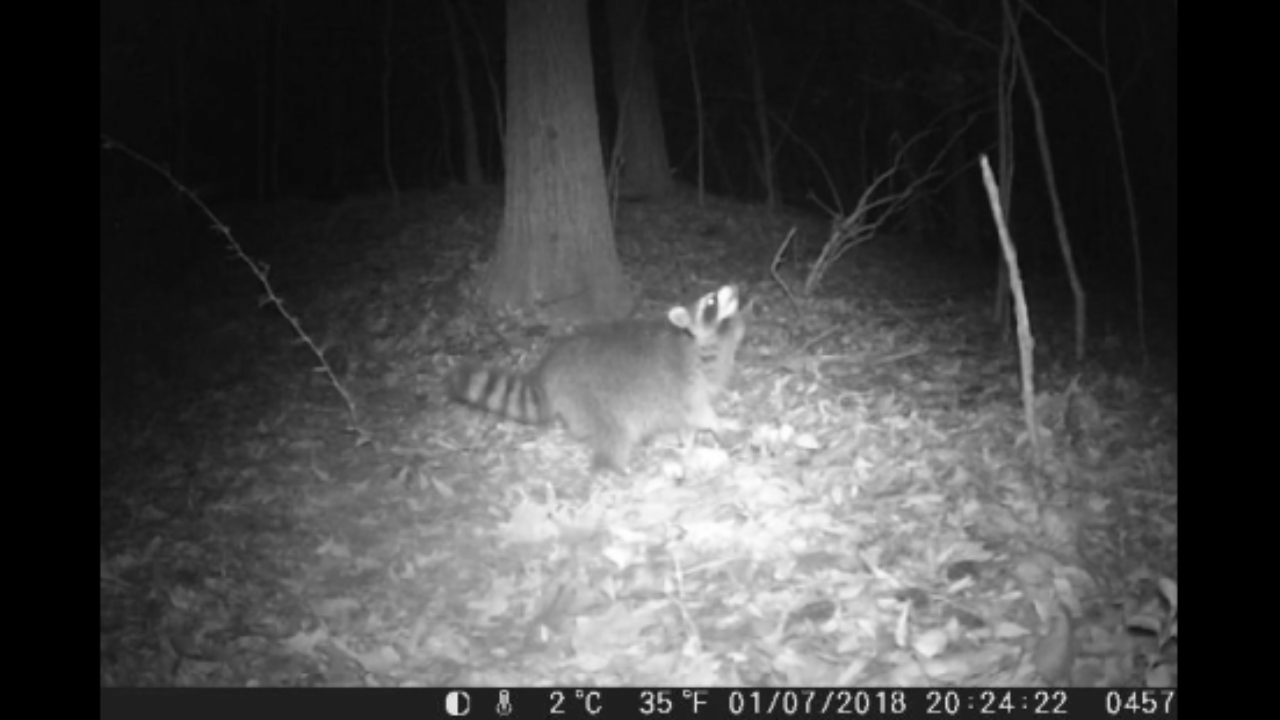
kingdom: Animalia
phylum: Chordata
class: Mammalia
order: Carnivora
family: Procyonidae
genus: Procyon
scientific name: Procyon lotor
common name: Raccoon
